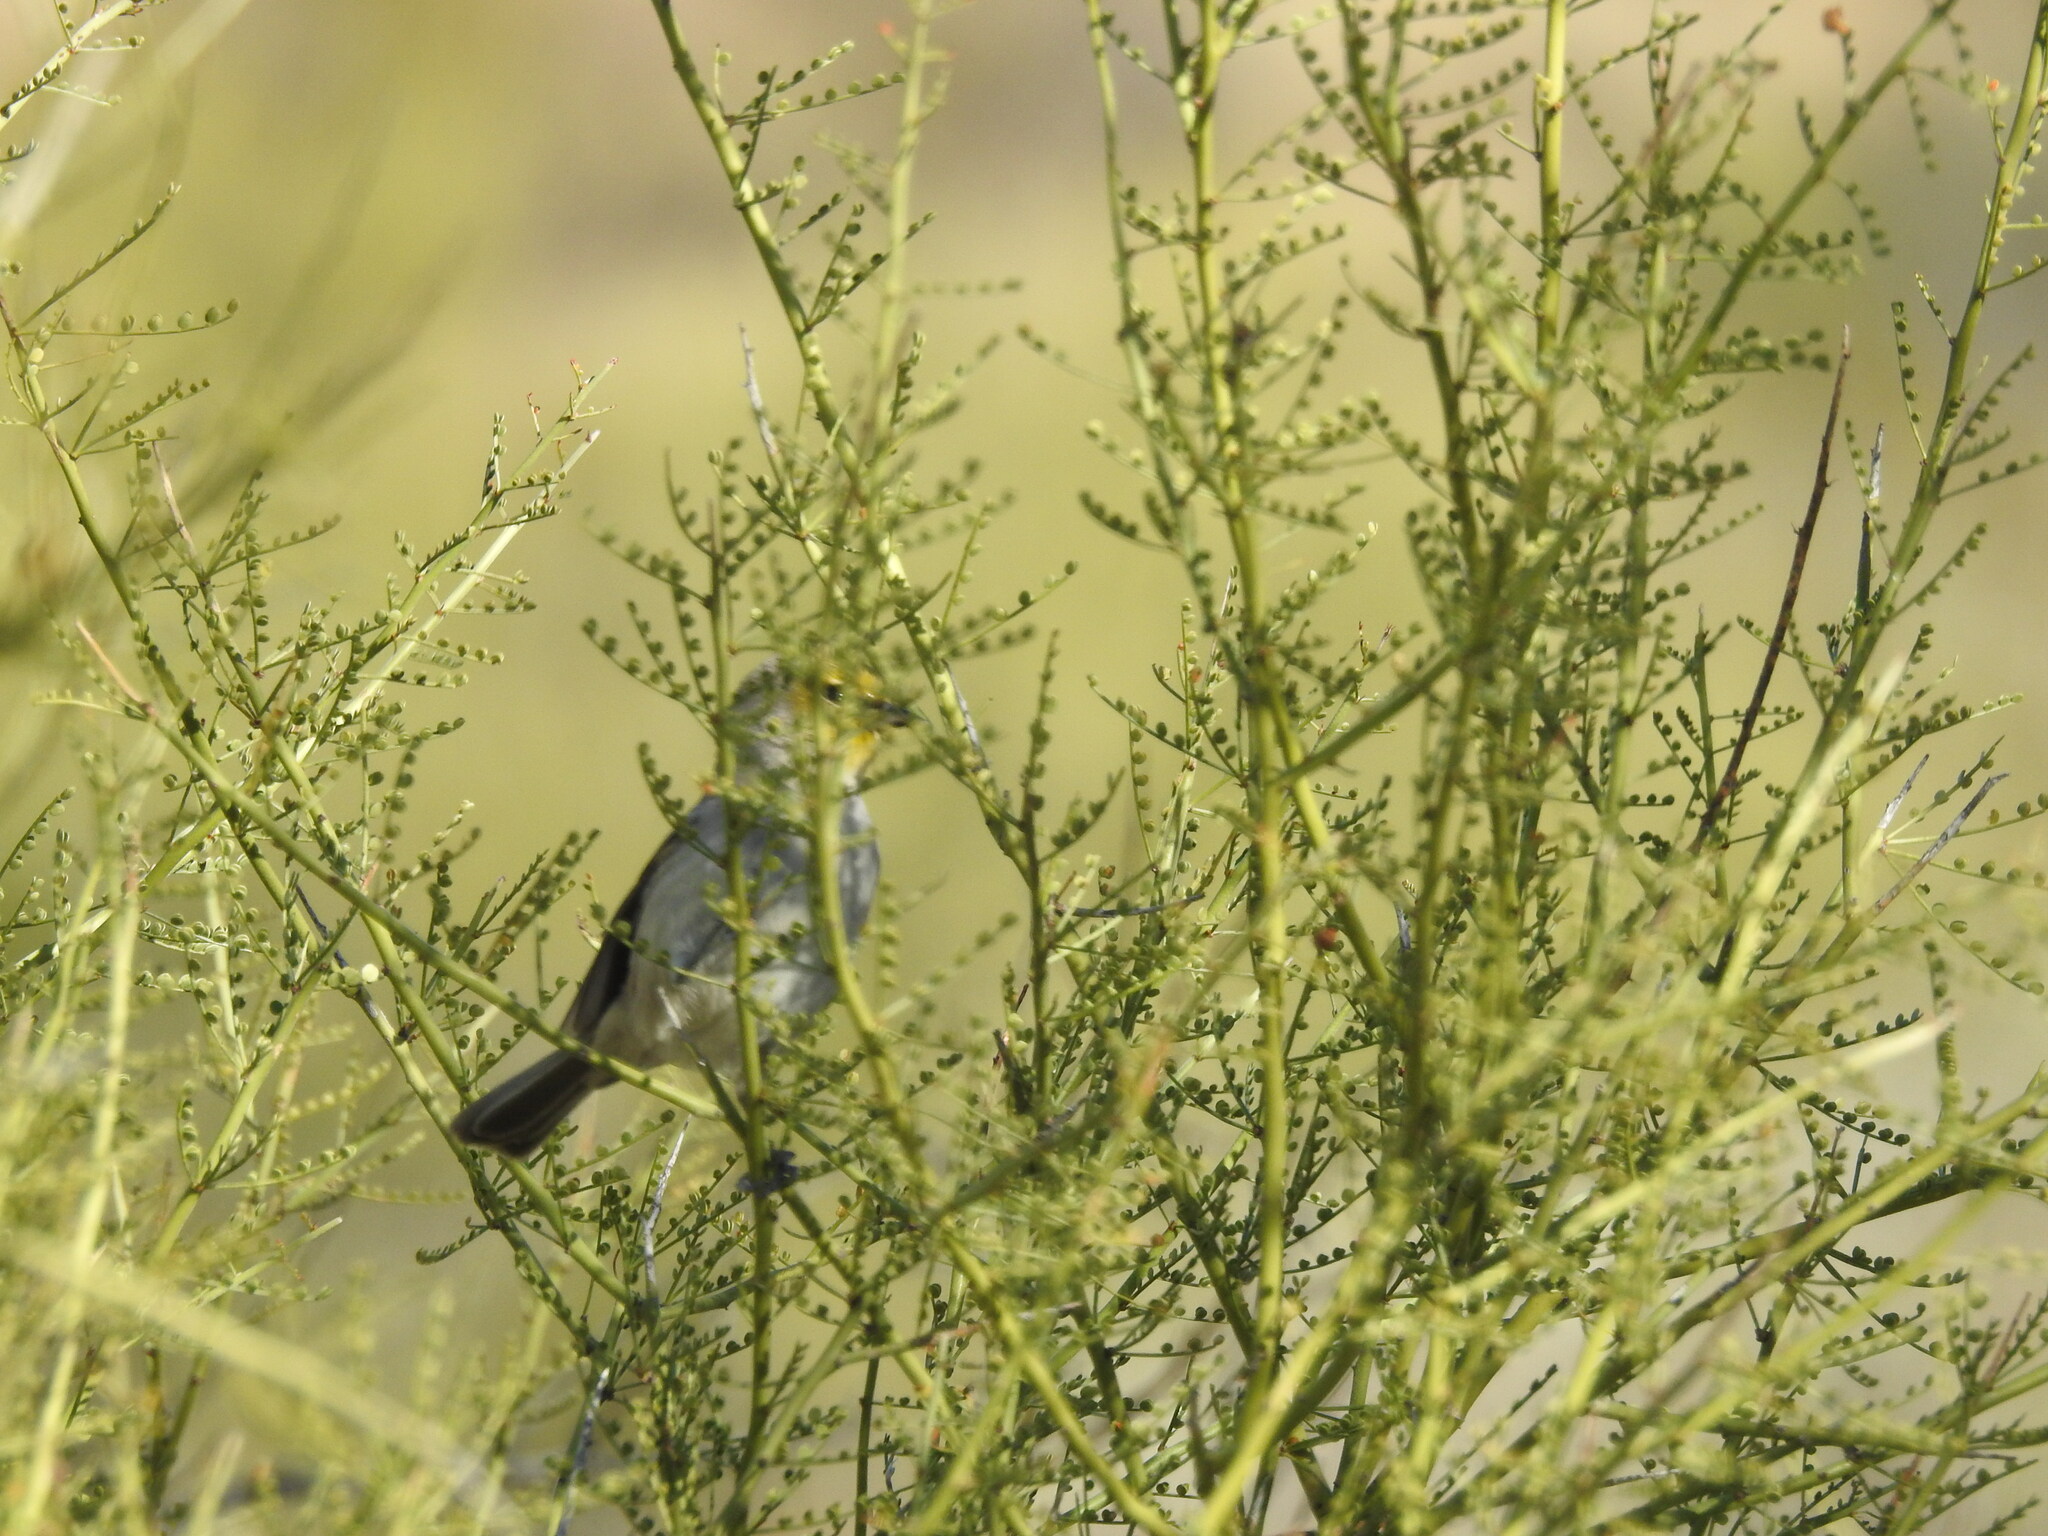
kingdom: Animalia
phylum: Chordata
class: Aves
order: Passeriformes
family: Remizidae
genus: Auriparus
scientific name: Auriparus flaviceps
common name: Verdin
